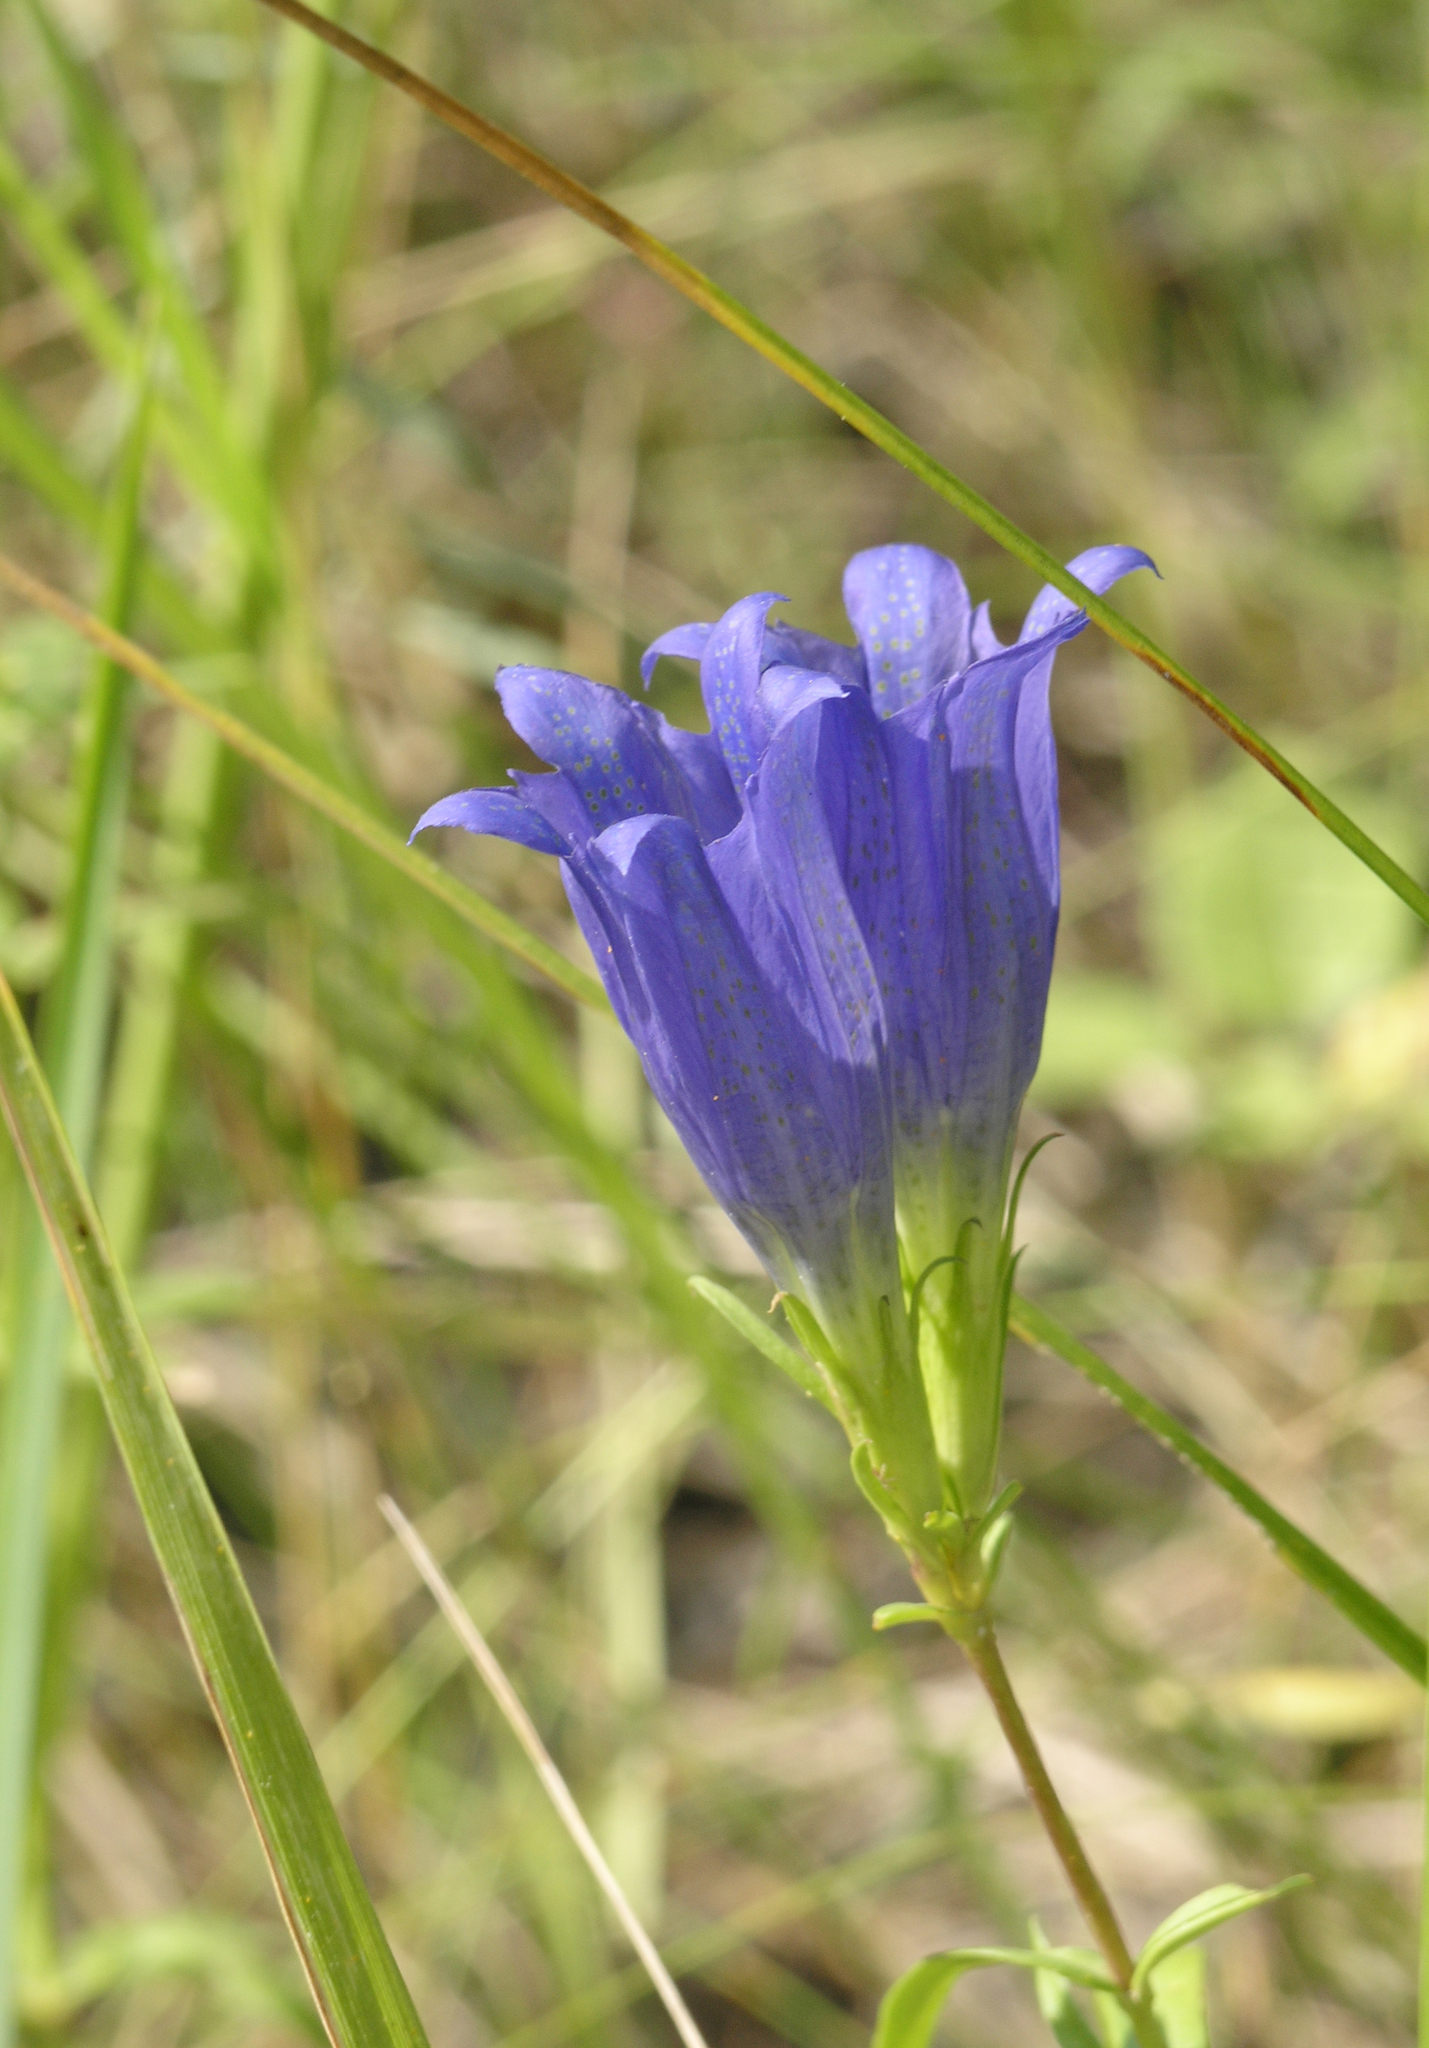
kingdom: Plantae
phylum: Tracheophyta
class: Magnoliopsida
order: Gentianales
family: Gentianaceae
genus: Gentiana
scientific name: Gentiana pneumonanthe
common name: Marsh gentian
